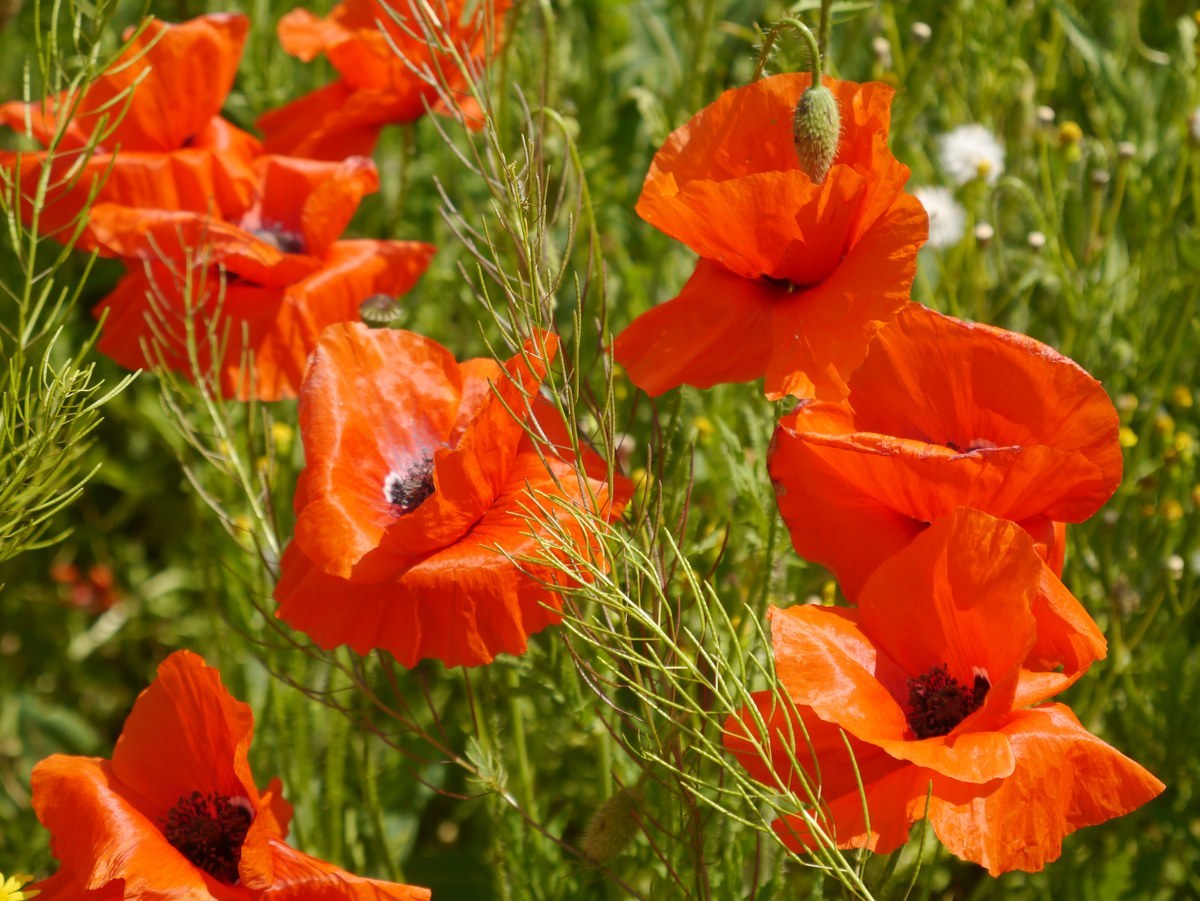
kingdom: Plantae
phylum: Tracheophyta
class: Magnoliopsida
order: Ranunculales
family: Papaveraceae
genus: Papaver
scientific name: Papaver rhoeas
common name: Corn poppy
